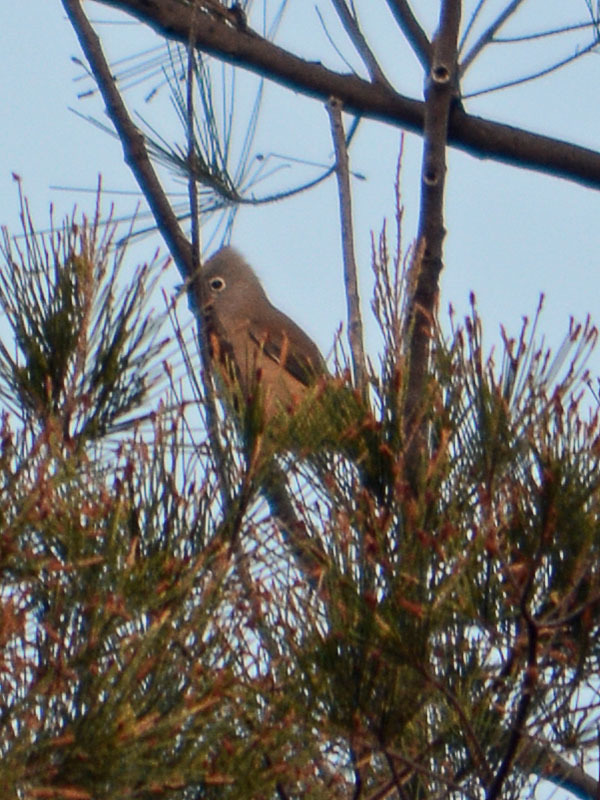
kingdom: Animalia
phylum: Chordata
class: Aves
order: Passeriformes
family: Ptilogonatidae
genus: Ptilogonys
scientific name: Ptilogonys cinereus
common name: Gray silky-flycatcher
